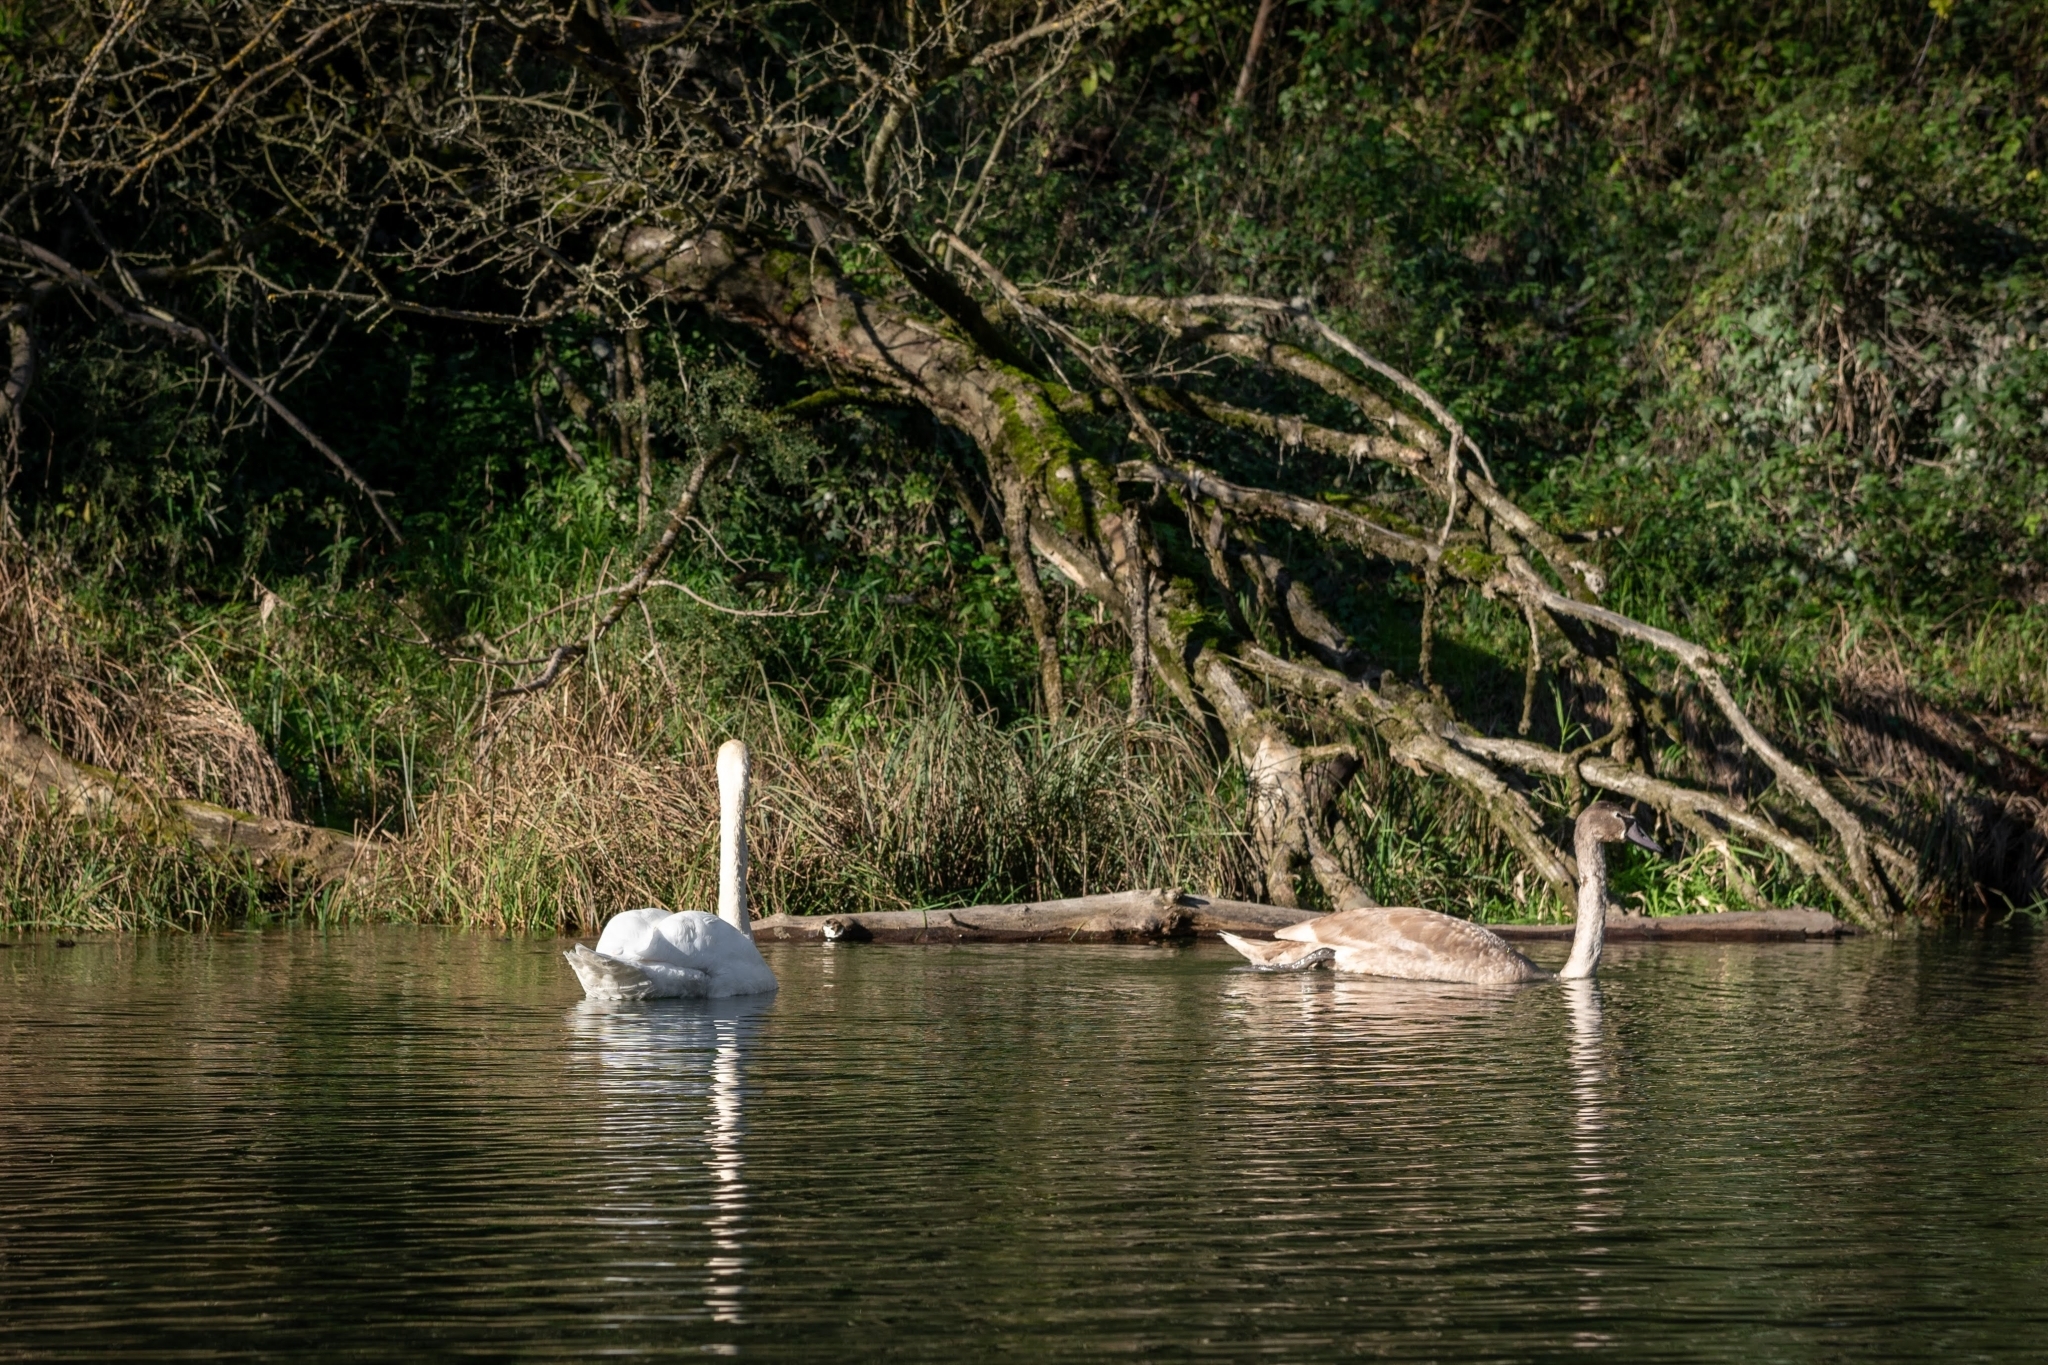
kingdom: Animalia
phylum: Chordata
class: Aves
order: Anseriformes
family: Anatidae
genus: Cygnus
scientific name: Cygnus olor
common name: Mute swan
